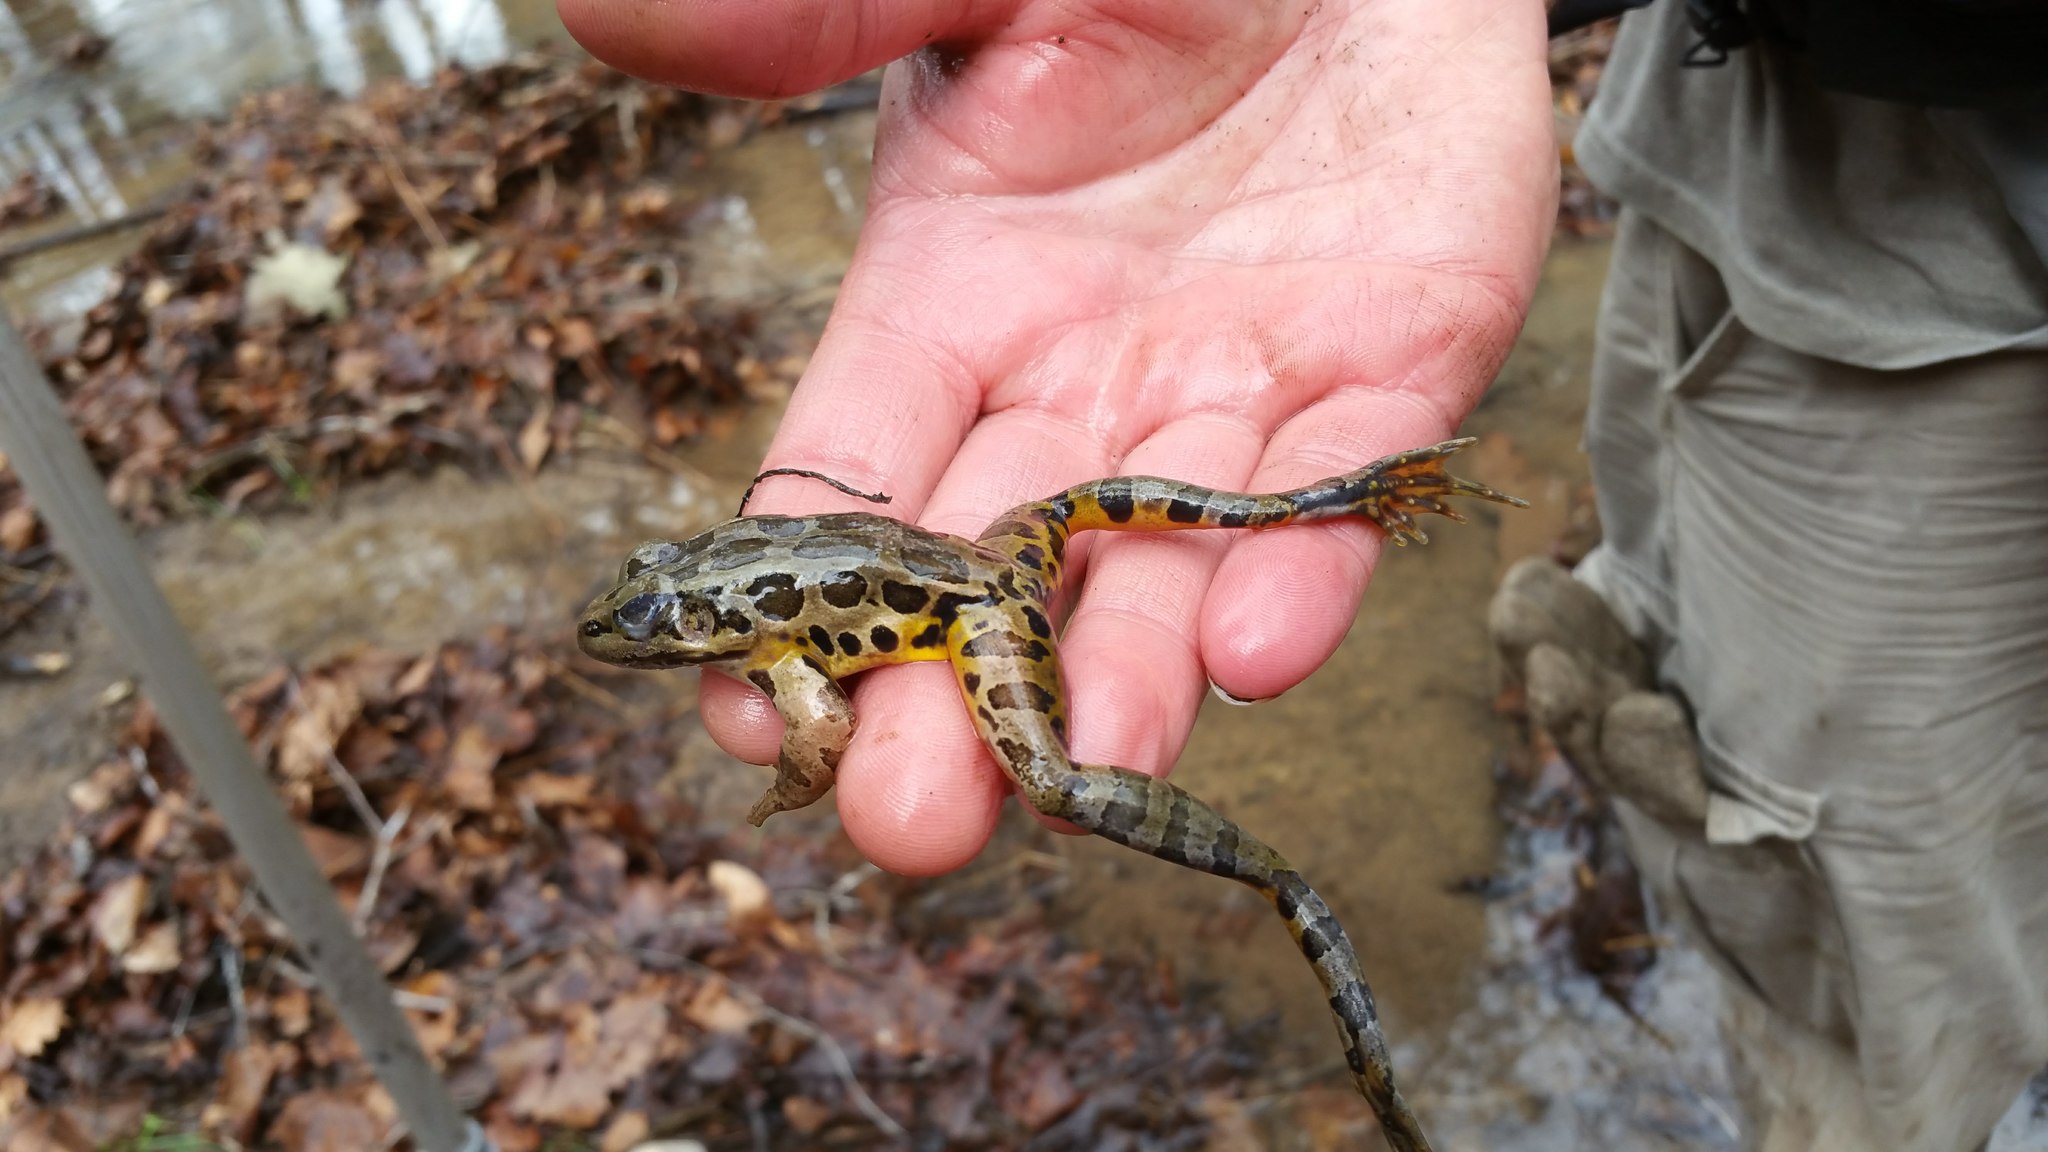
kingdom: Animalia
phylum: Chordata
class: Amphibia
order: Anura
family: Ranidae
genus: Lithobates
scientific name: Lithobates palustris
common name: Pickerel frog
